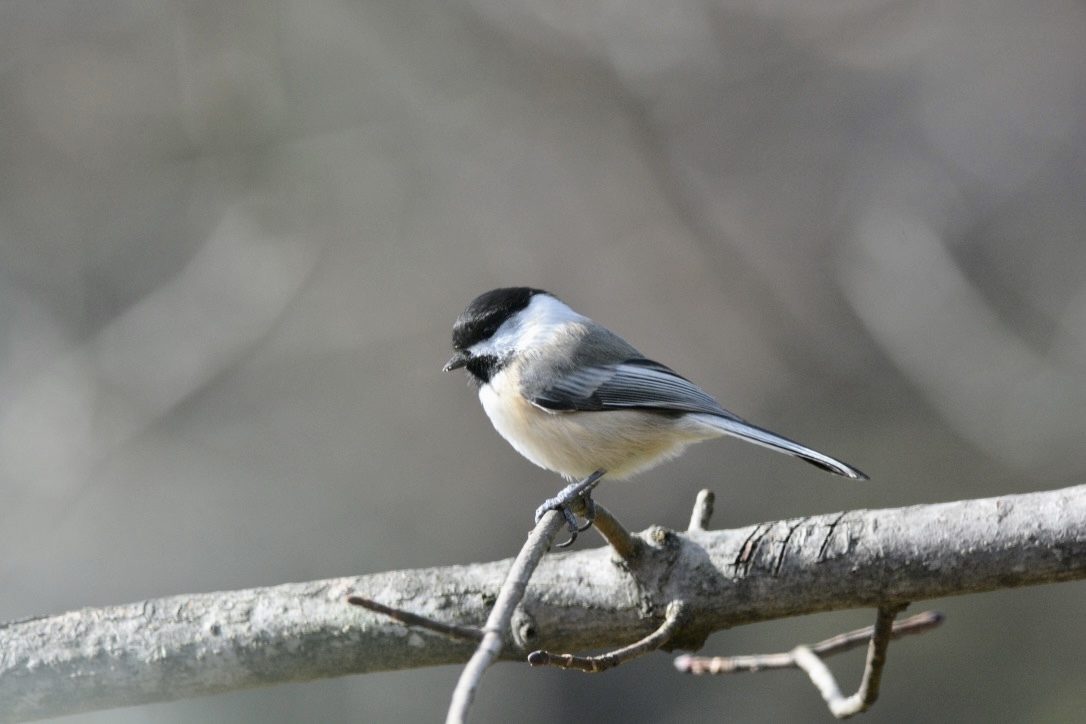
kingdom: Animalia
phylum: Chordata
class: Aves
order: Passeriformes
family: Paridae
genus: Poecile
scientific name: Poecile atricapillus
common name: Black-capped chickadee
